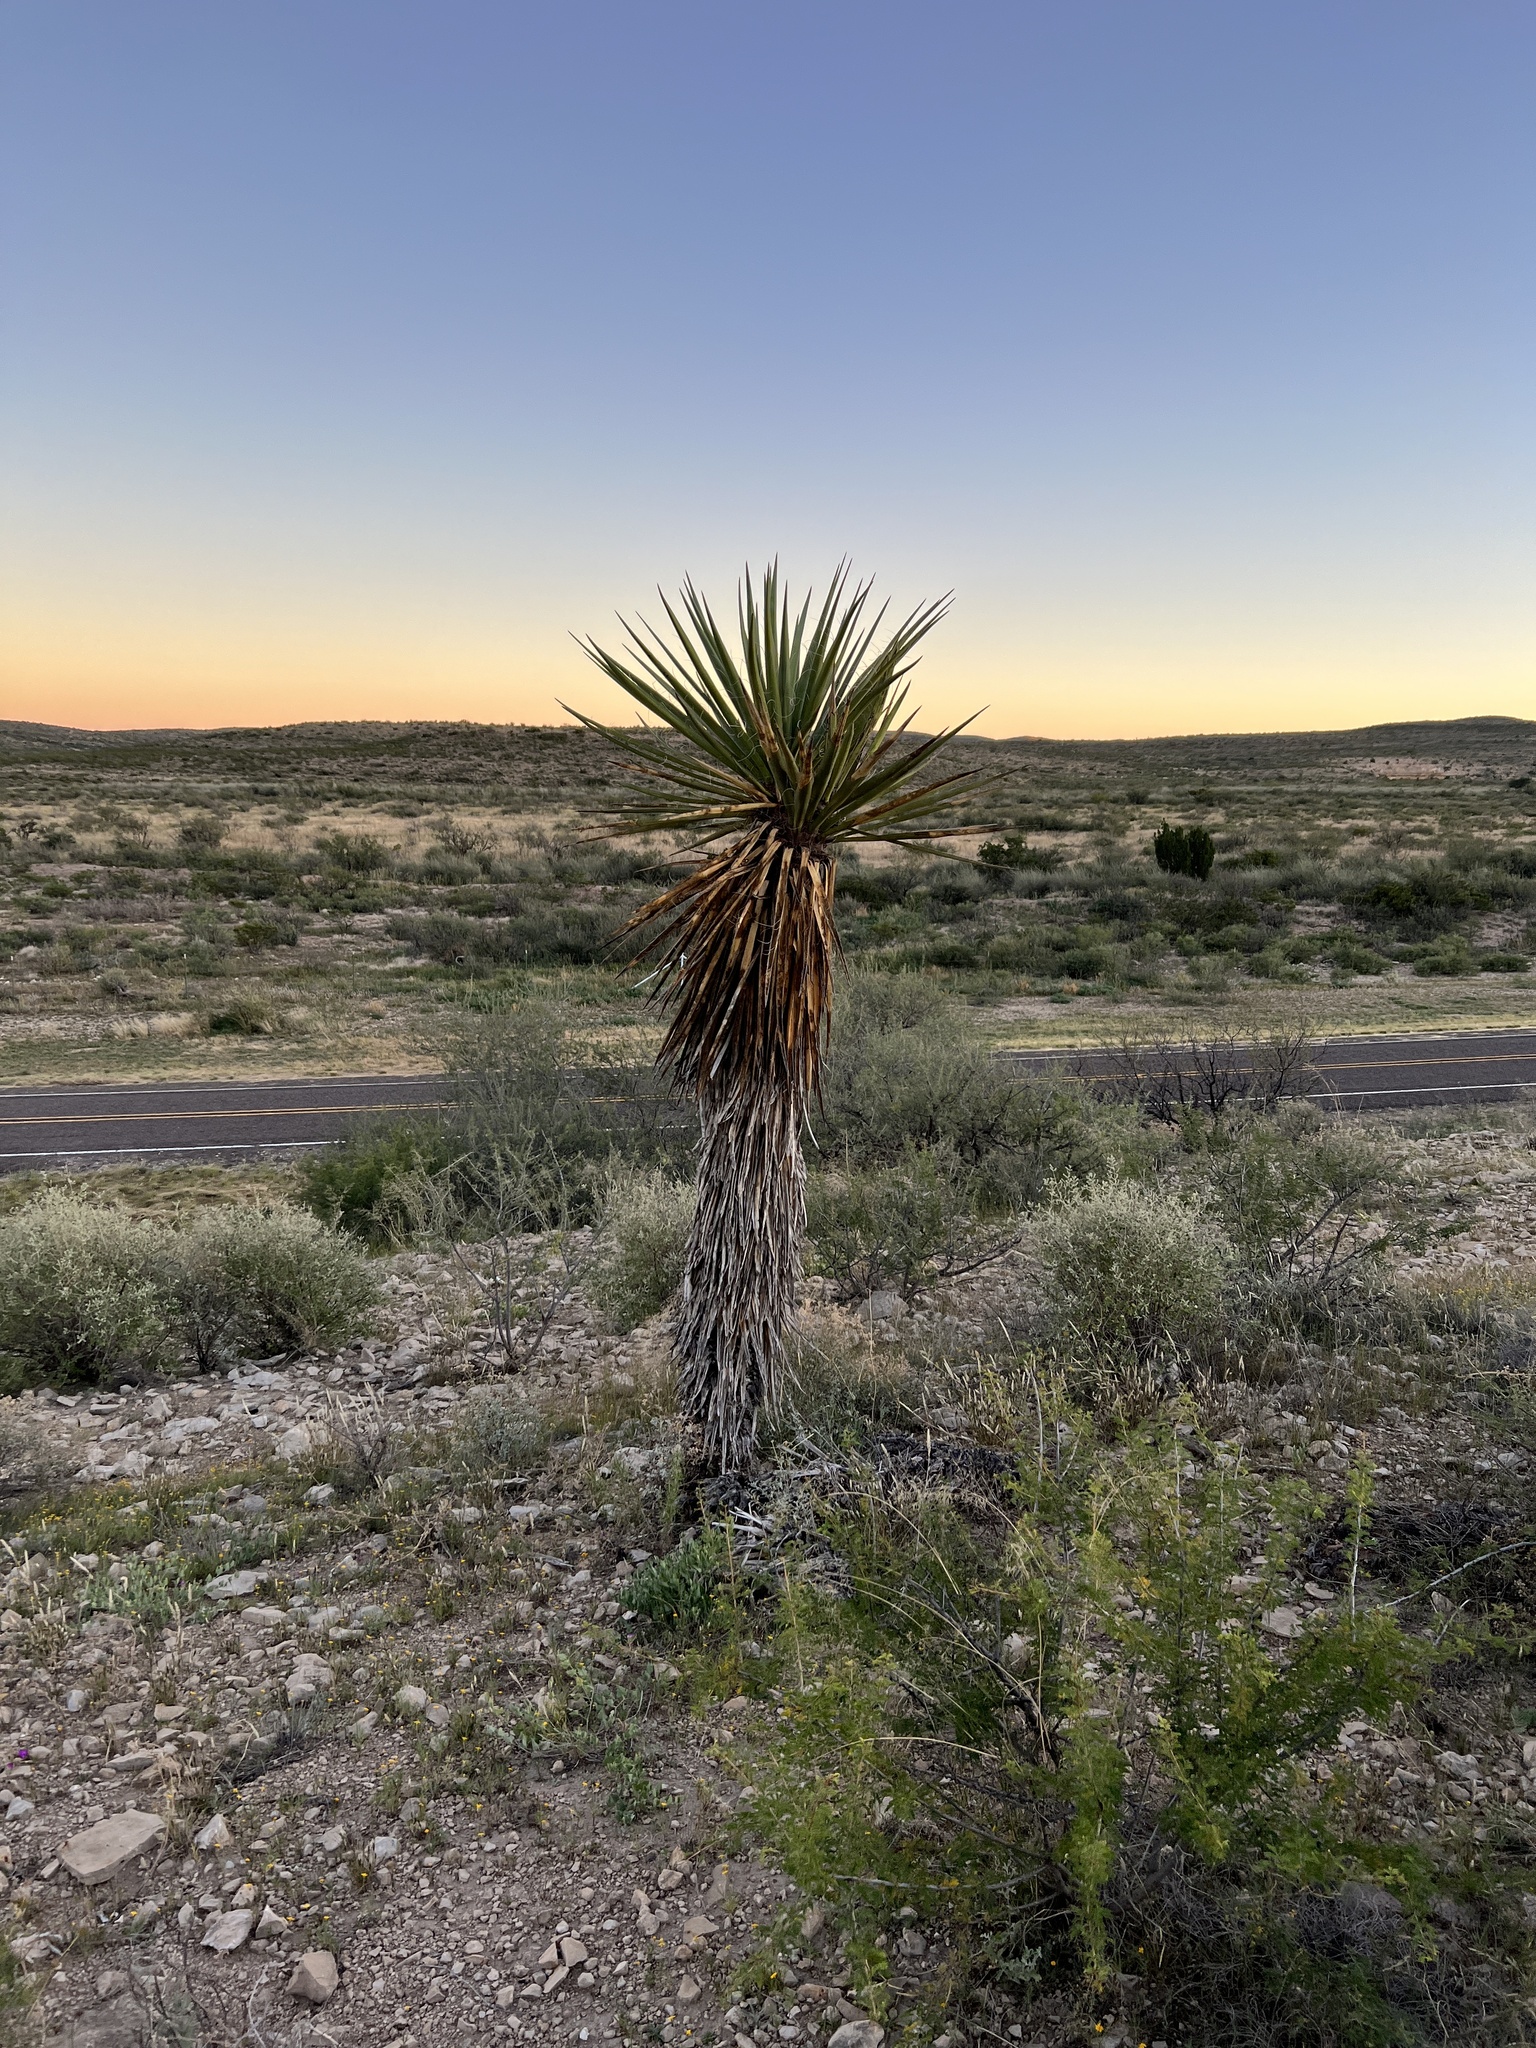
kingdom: Plantae
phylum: Tracheophyta
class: Liliopsida
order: Asparagales
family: Asparagaceae
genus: Yucca
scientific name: Yucca treculiana
